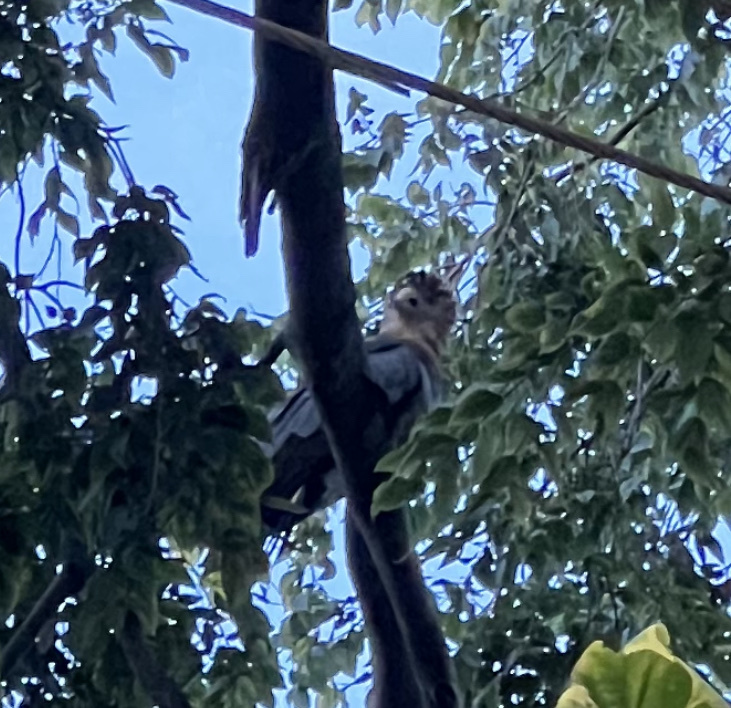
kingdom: Animalia
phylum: Chordata
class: Aves
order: Accipitriformes
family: Accipitridae
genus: Polyboroides
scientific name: Polyboroides typus
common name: African harrier-hawk
